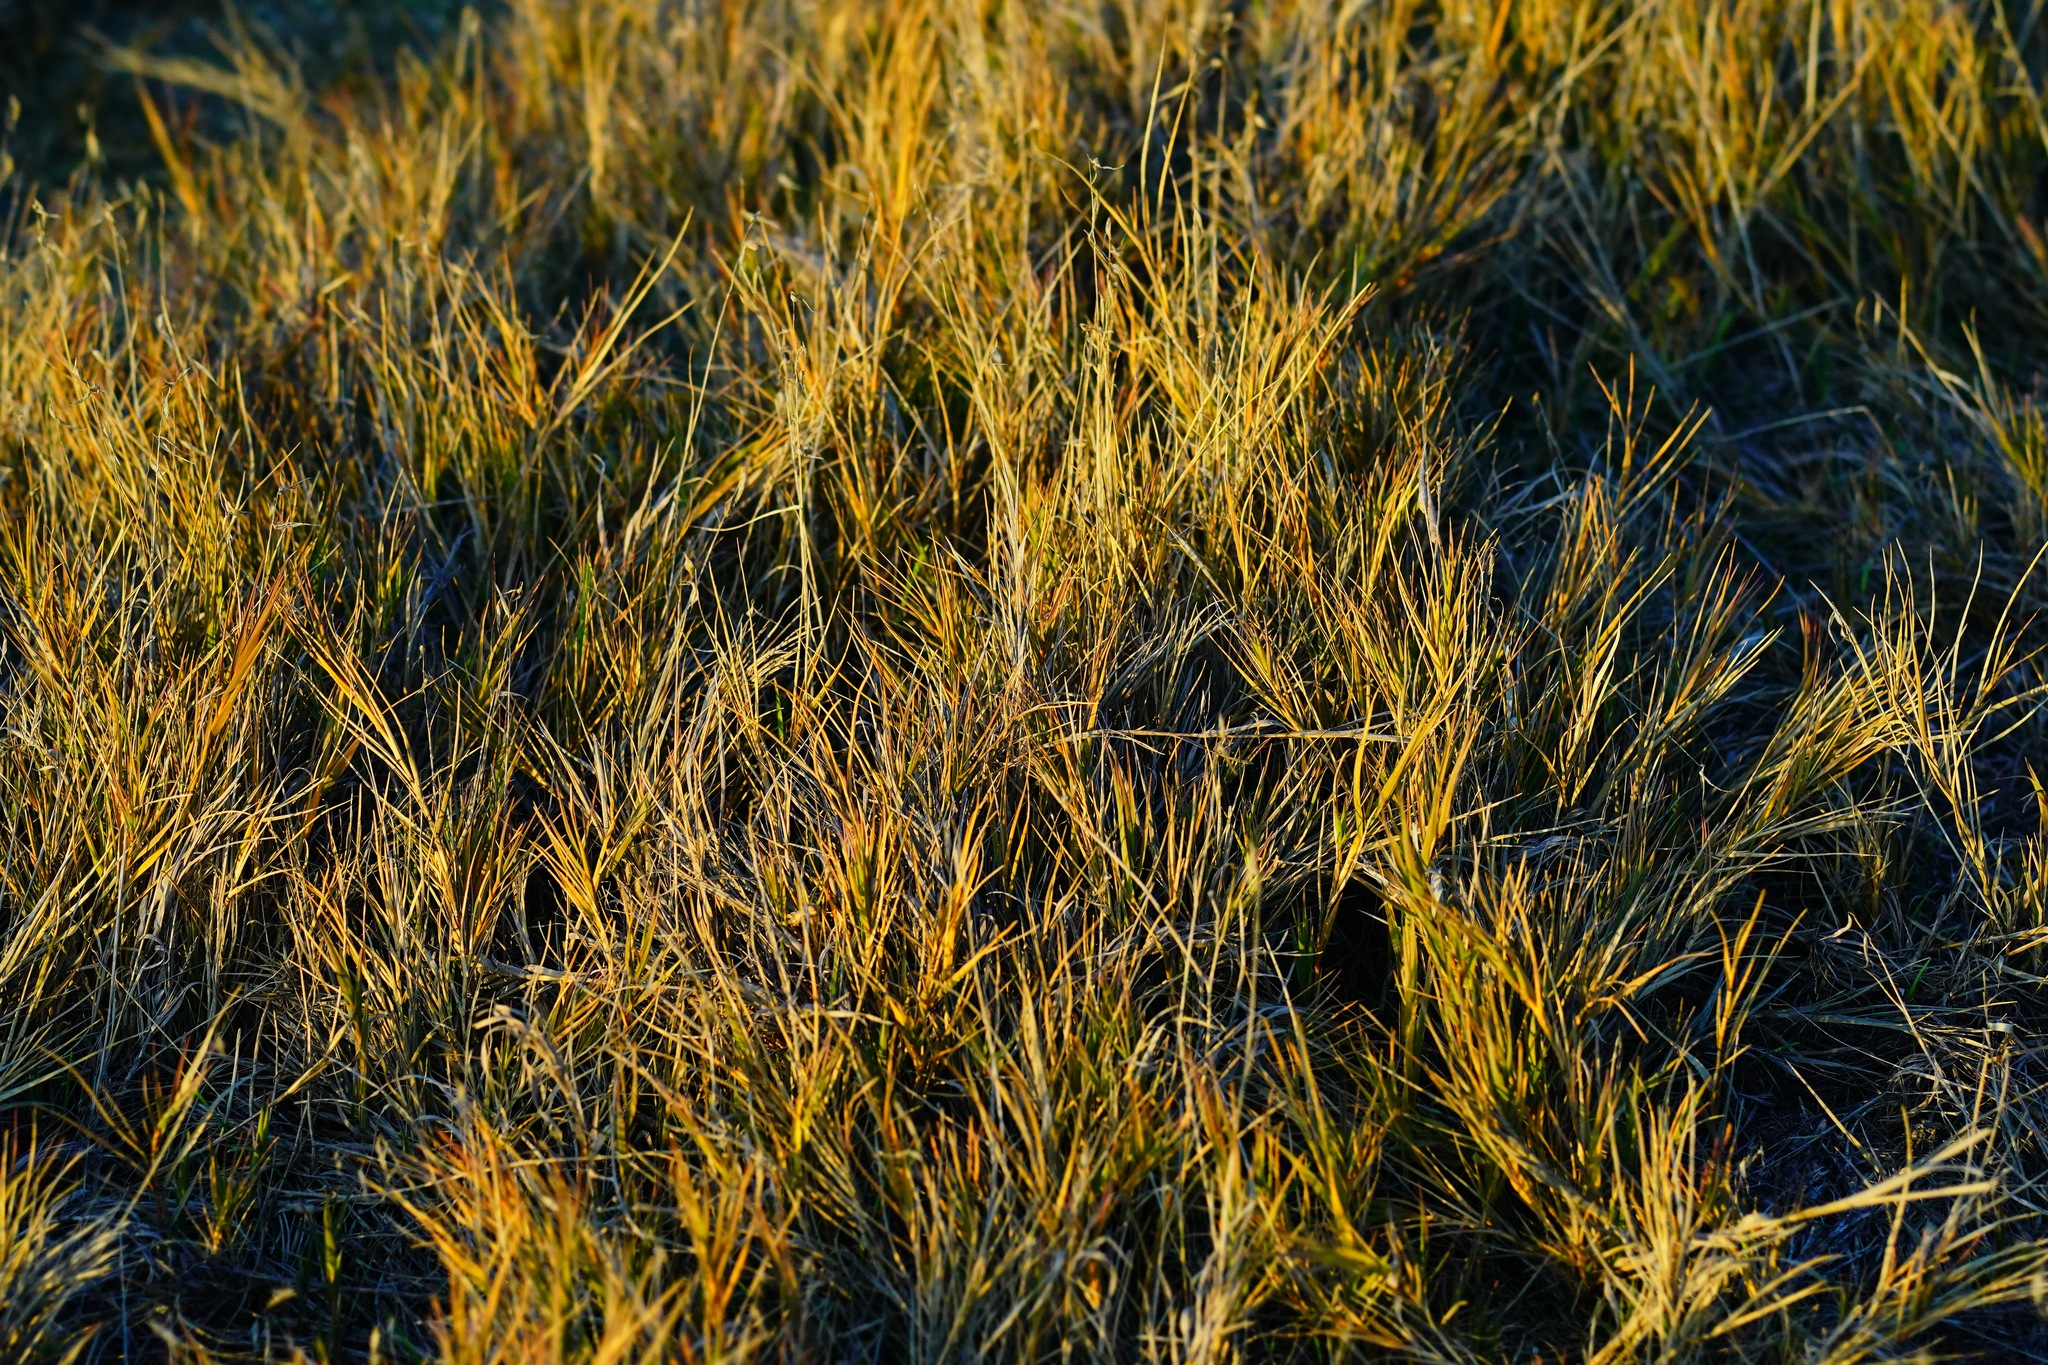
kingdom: Plantae
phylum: Tracheophyta
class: Liliopsida
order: Poales
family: Poaceae
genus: Distichlis
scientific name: Distichlis spicata
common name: Saltgrass
